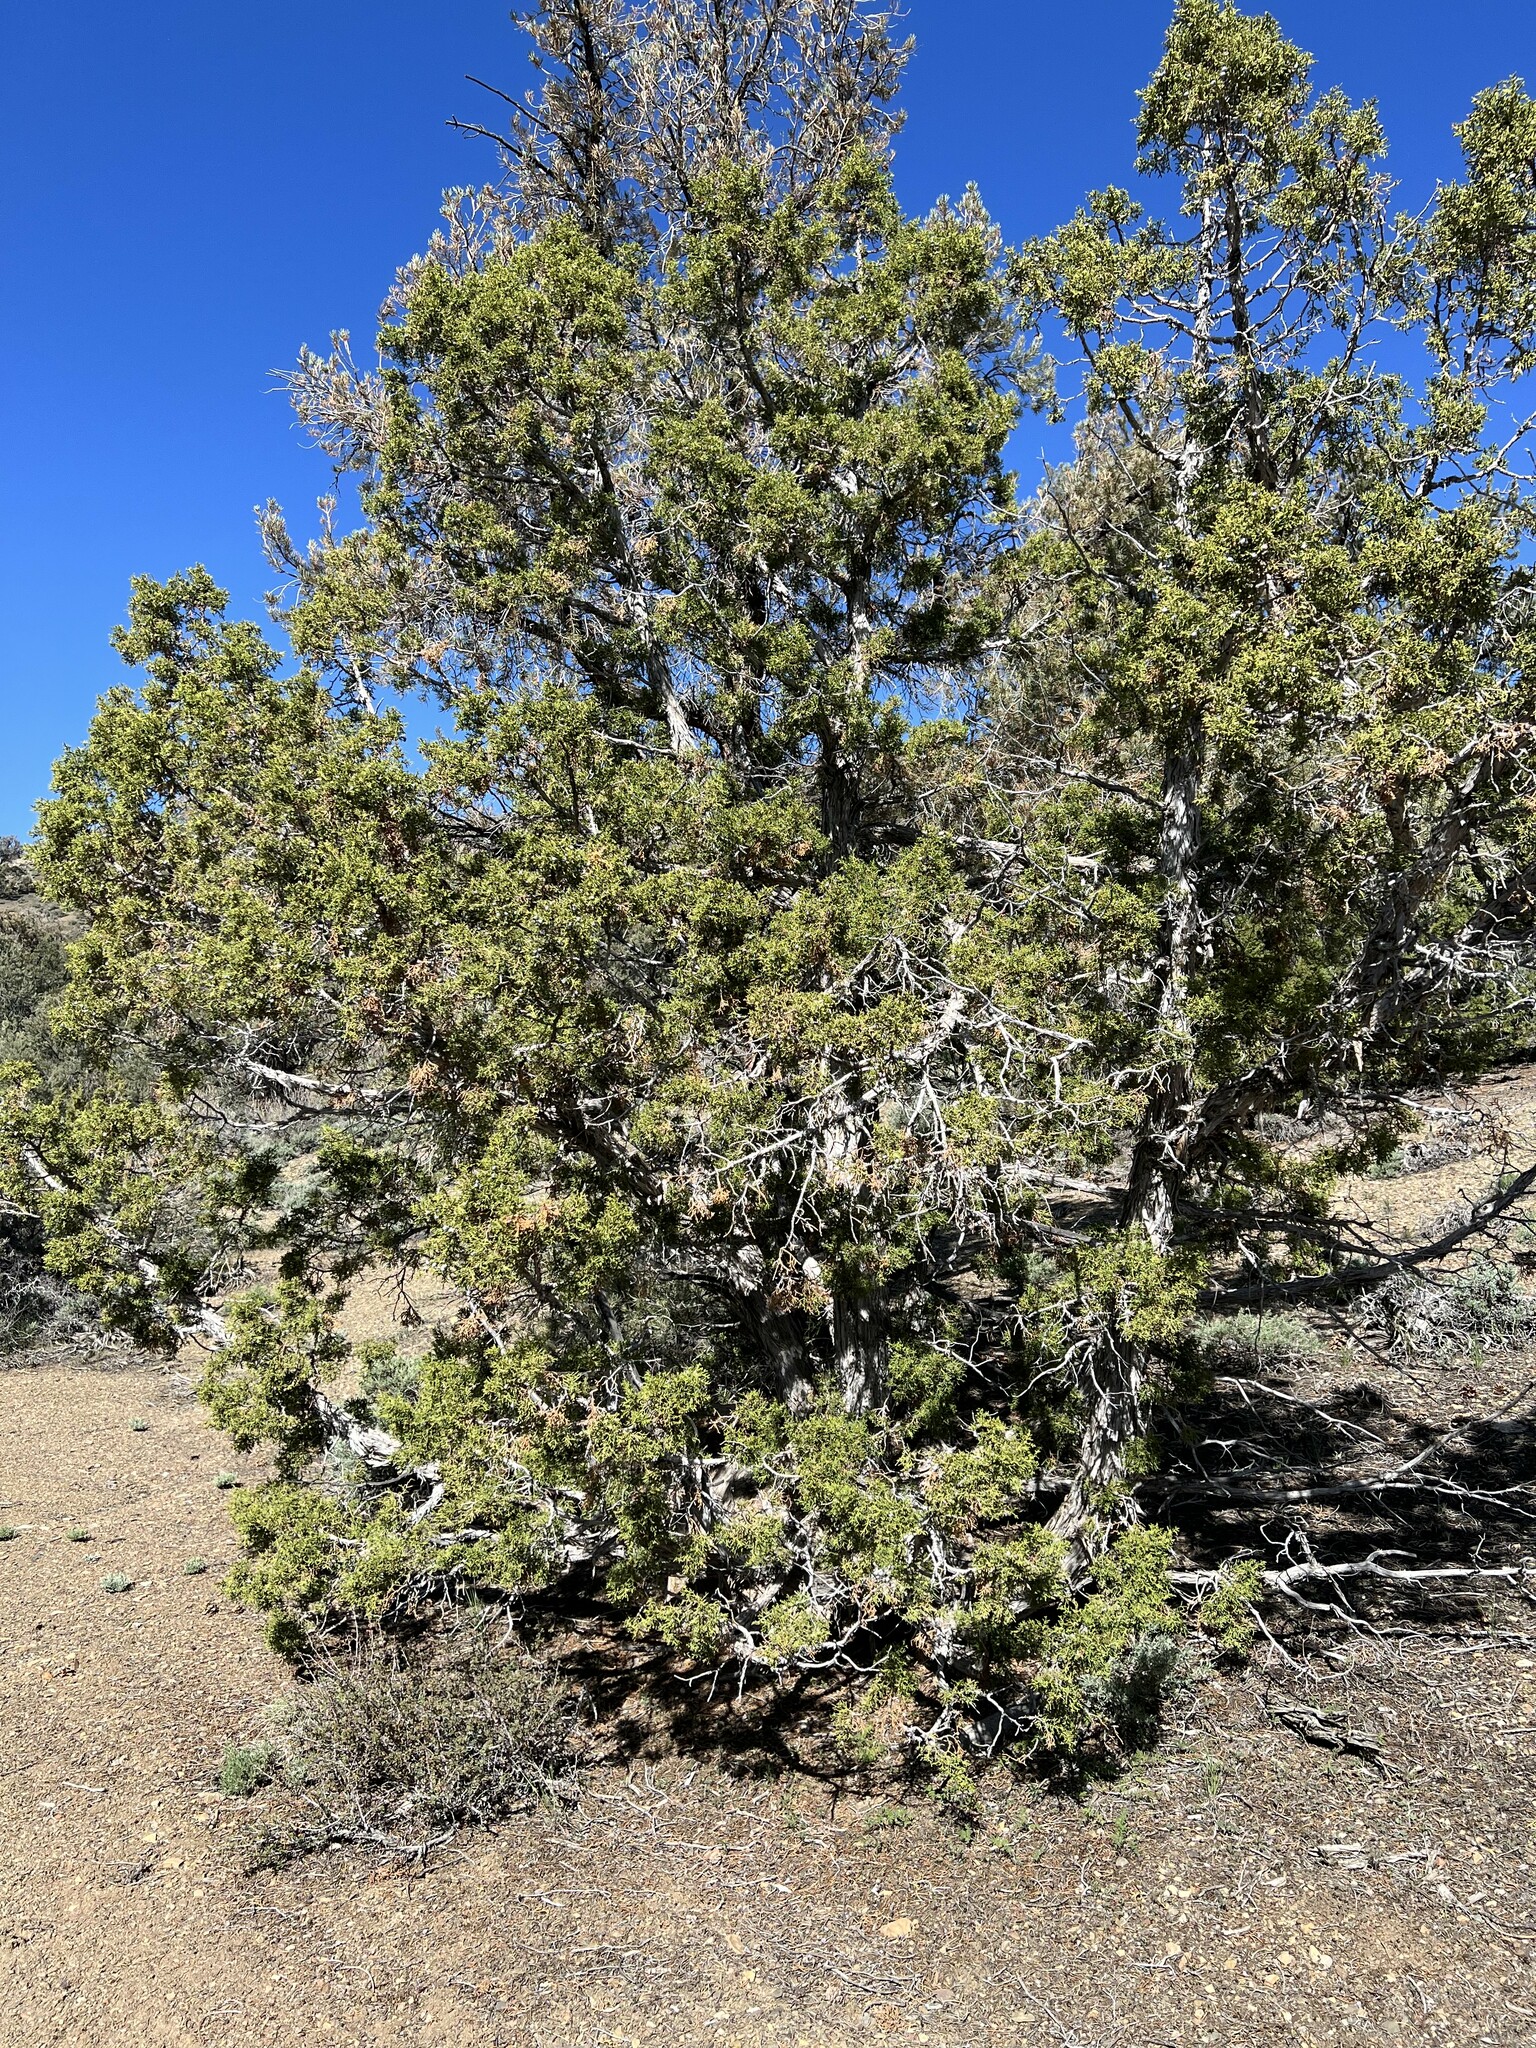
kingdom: Plantae
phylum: Tracheophyta
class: Pinopsida
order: Pinales
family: Cupressaceae
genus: Juniperus
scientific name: Juniperus osteosperma
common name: Utah juniper
